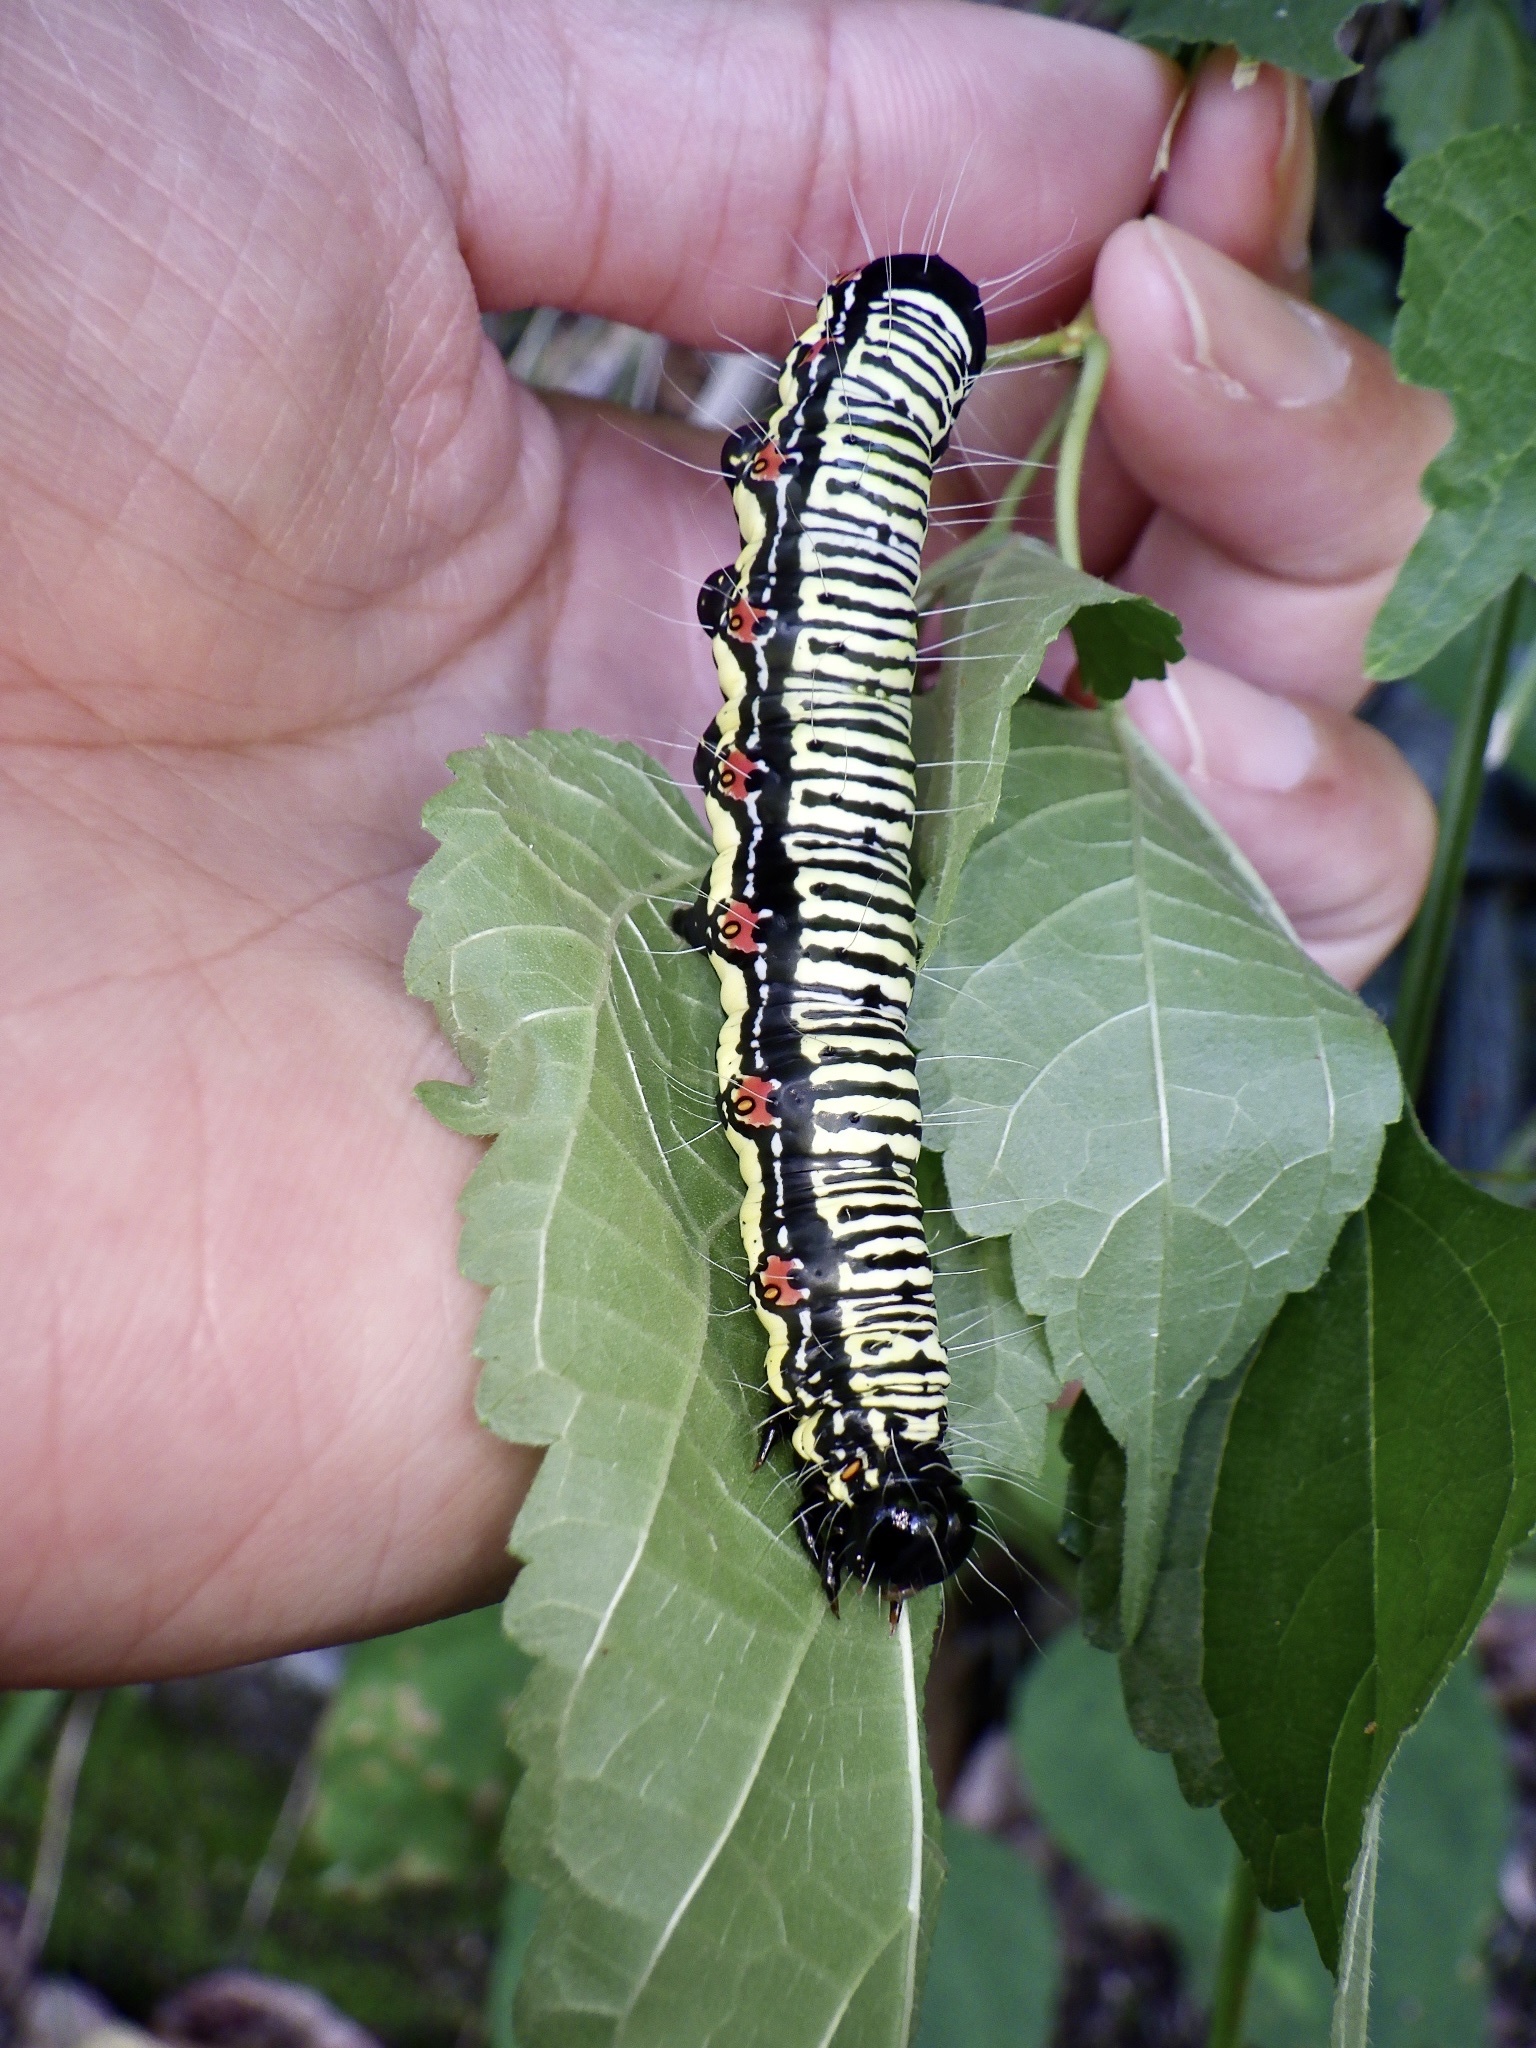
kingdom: Animalia
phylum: Arthropoda
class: Insecta
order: Lepidoptera
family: Erebidae
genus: Arcte
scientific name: Arcte coerula
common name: Ramie moth
